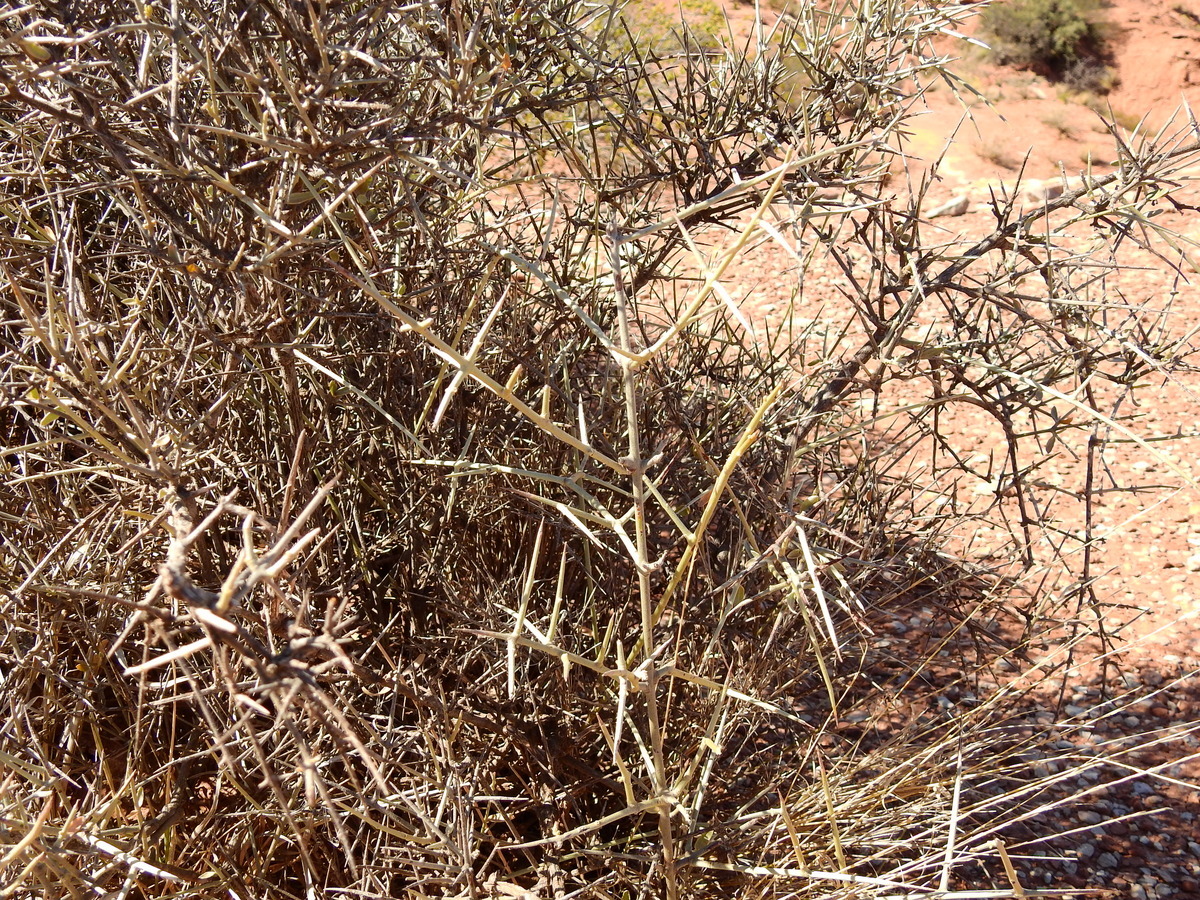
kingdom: Plantae
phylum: Tracheophyta
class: Magnoliopsida
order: Malpighiales
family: Malpighiaceae
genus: Tricomaria
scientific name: Tricomaria usillo
